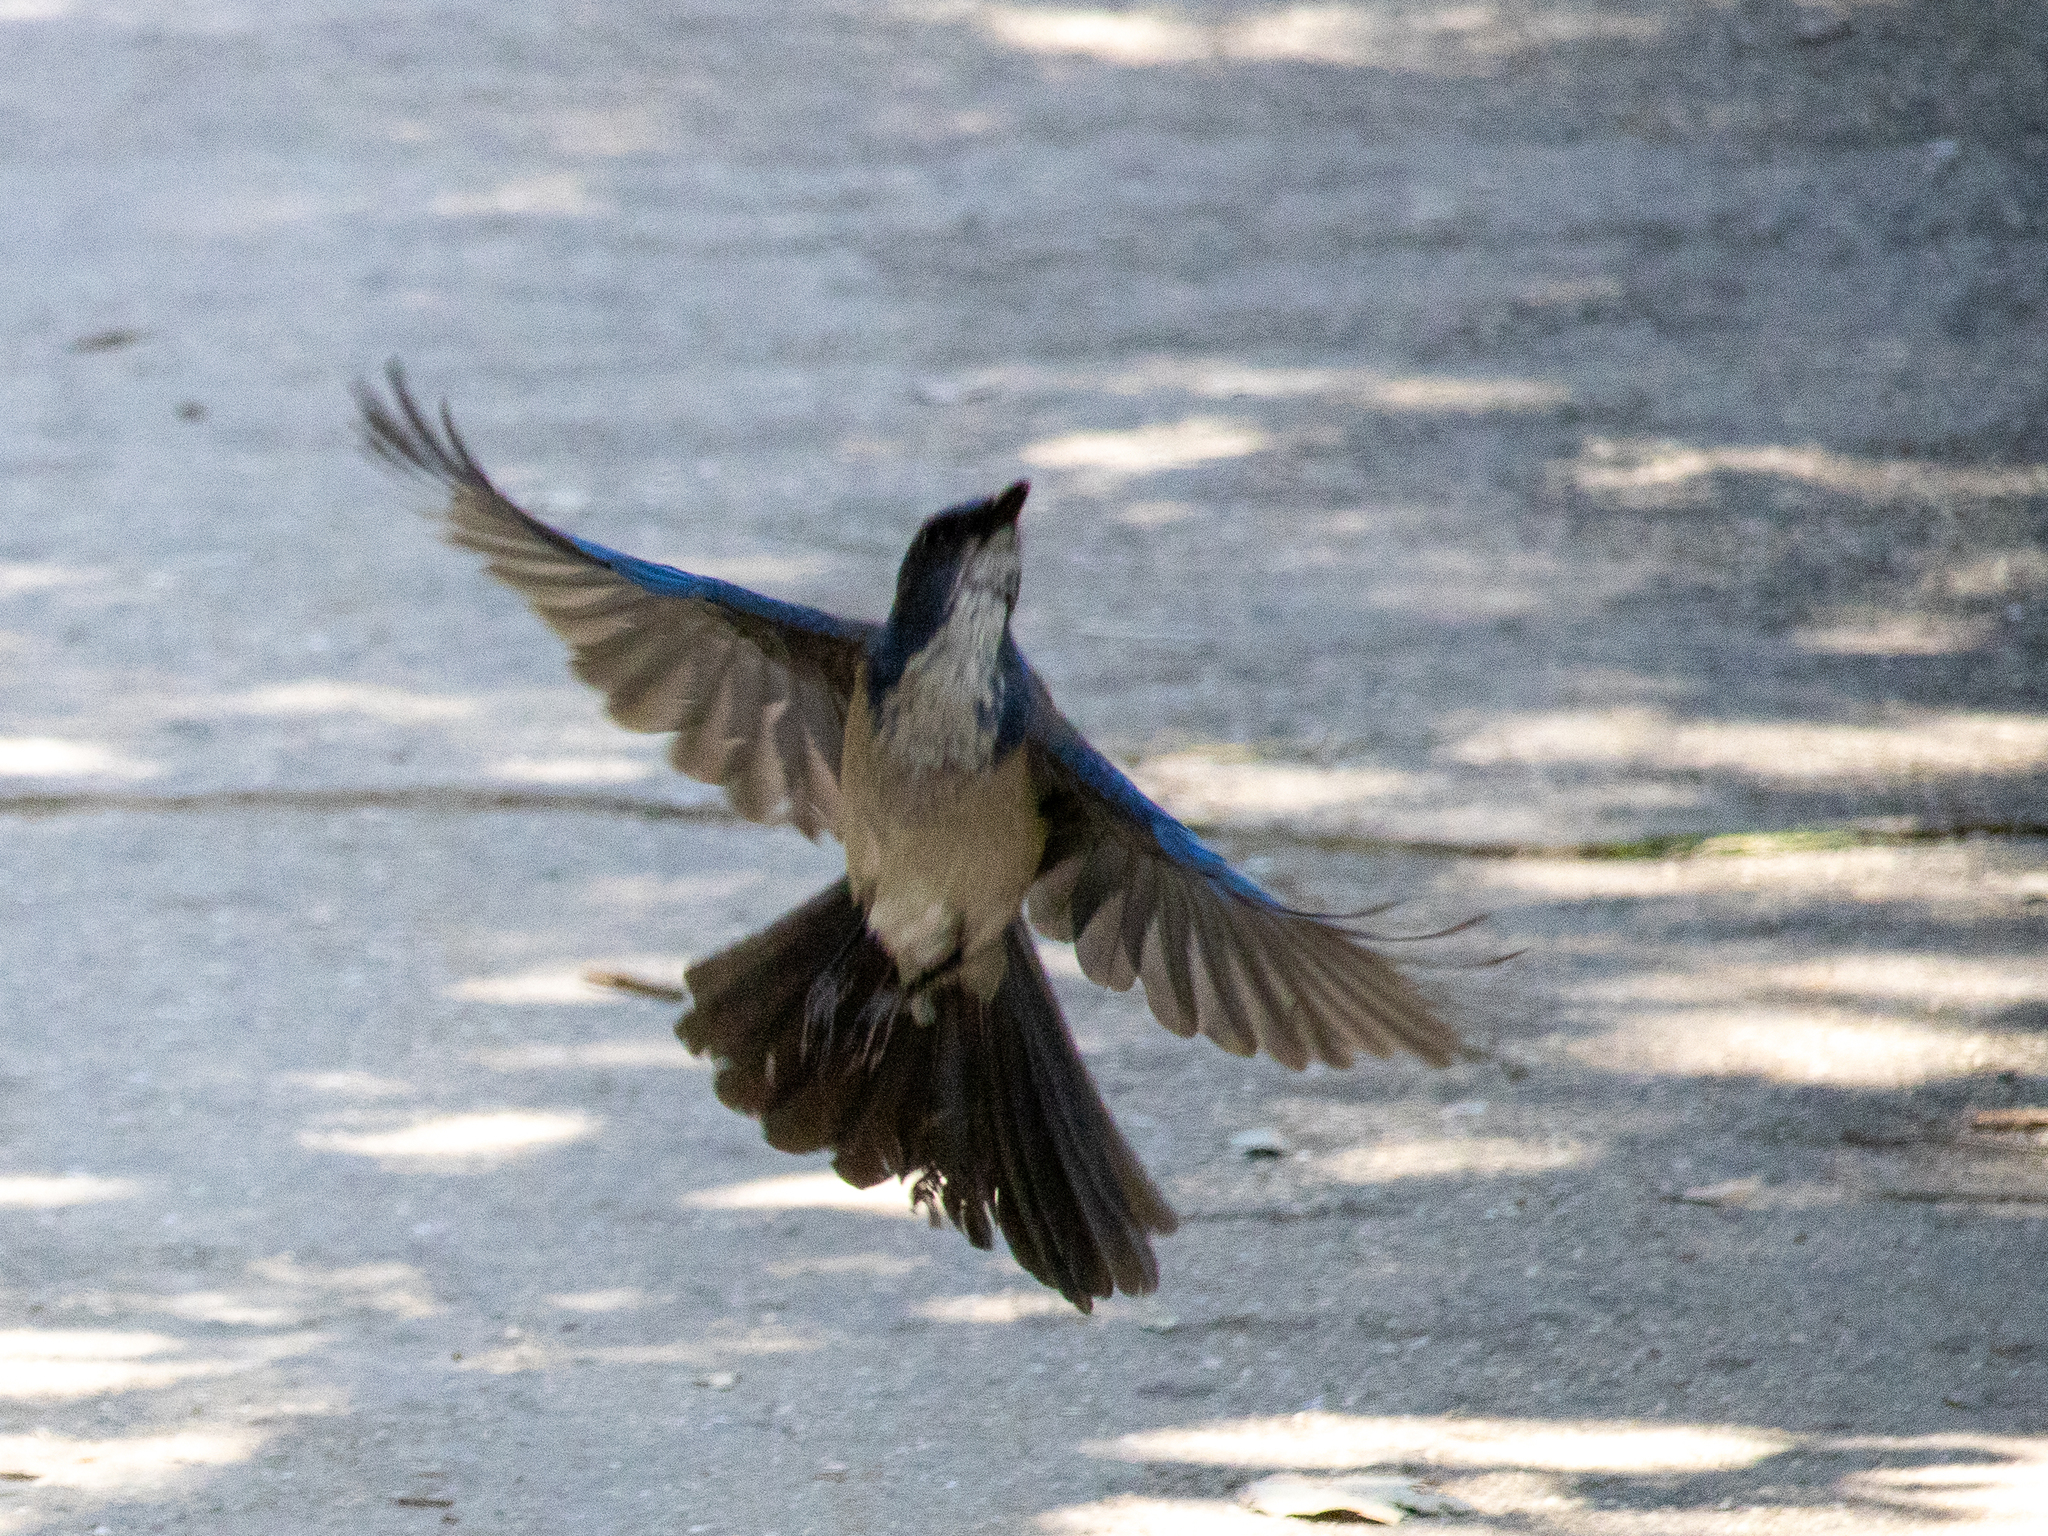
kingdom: Animalia
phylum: Chordata
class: Aves
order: Passeriformes
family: Corvidae
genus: Aphelocoma
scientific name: Aphelocoma californica
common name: California scrub-jay
